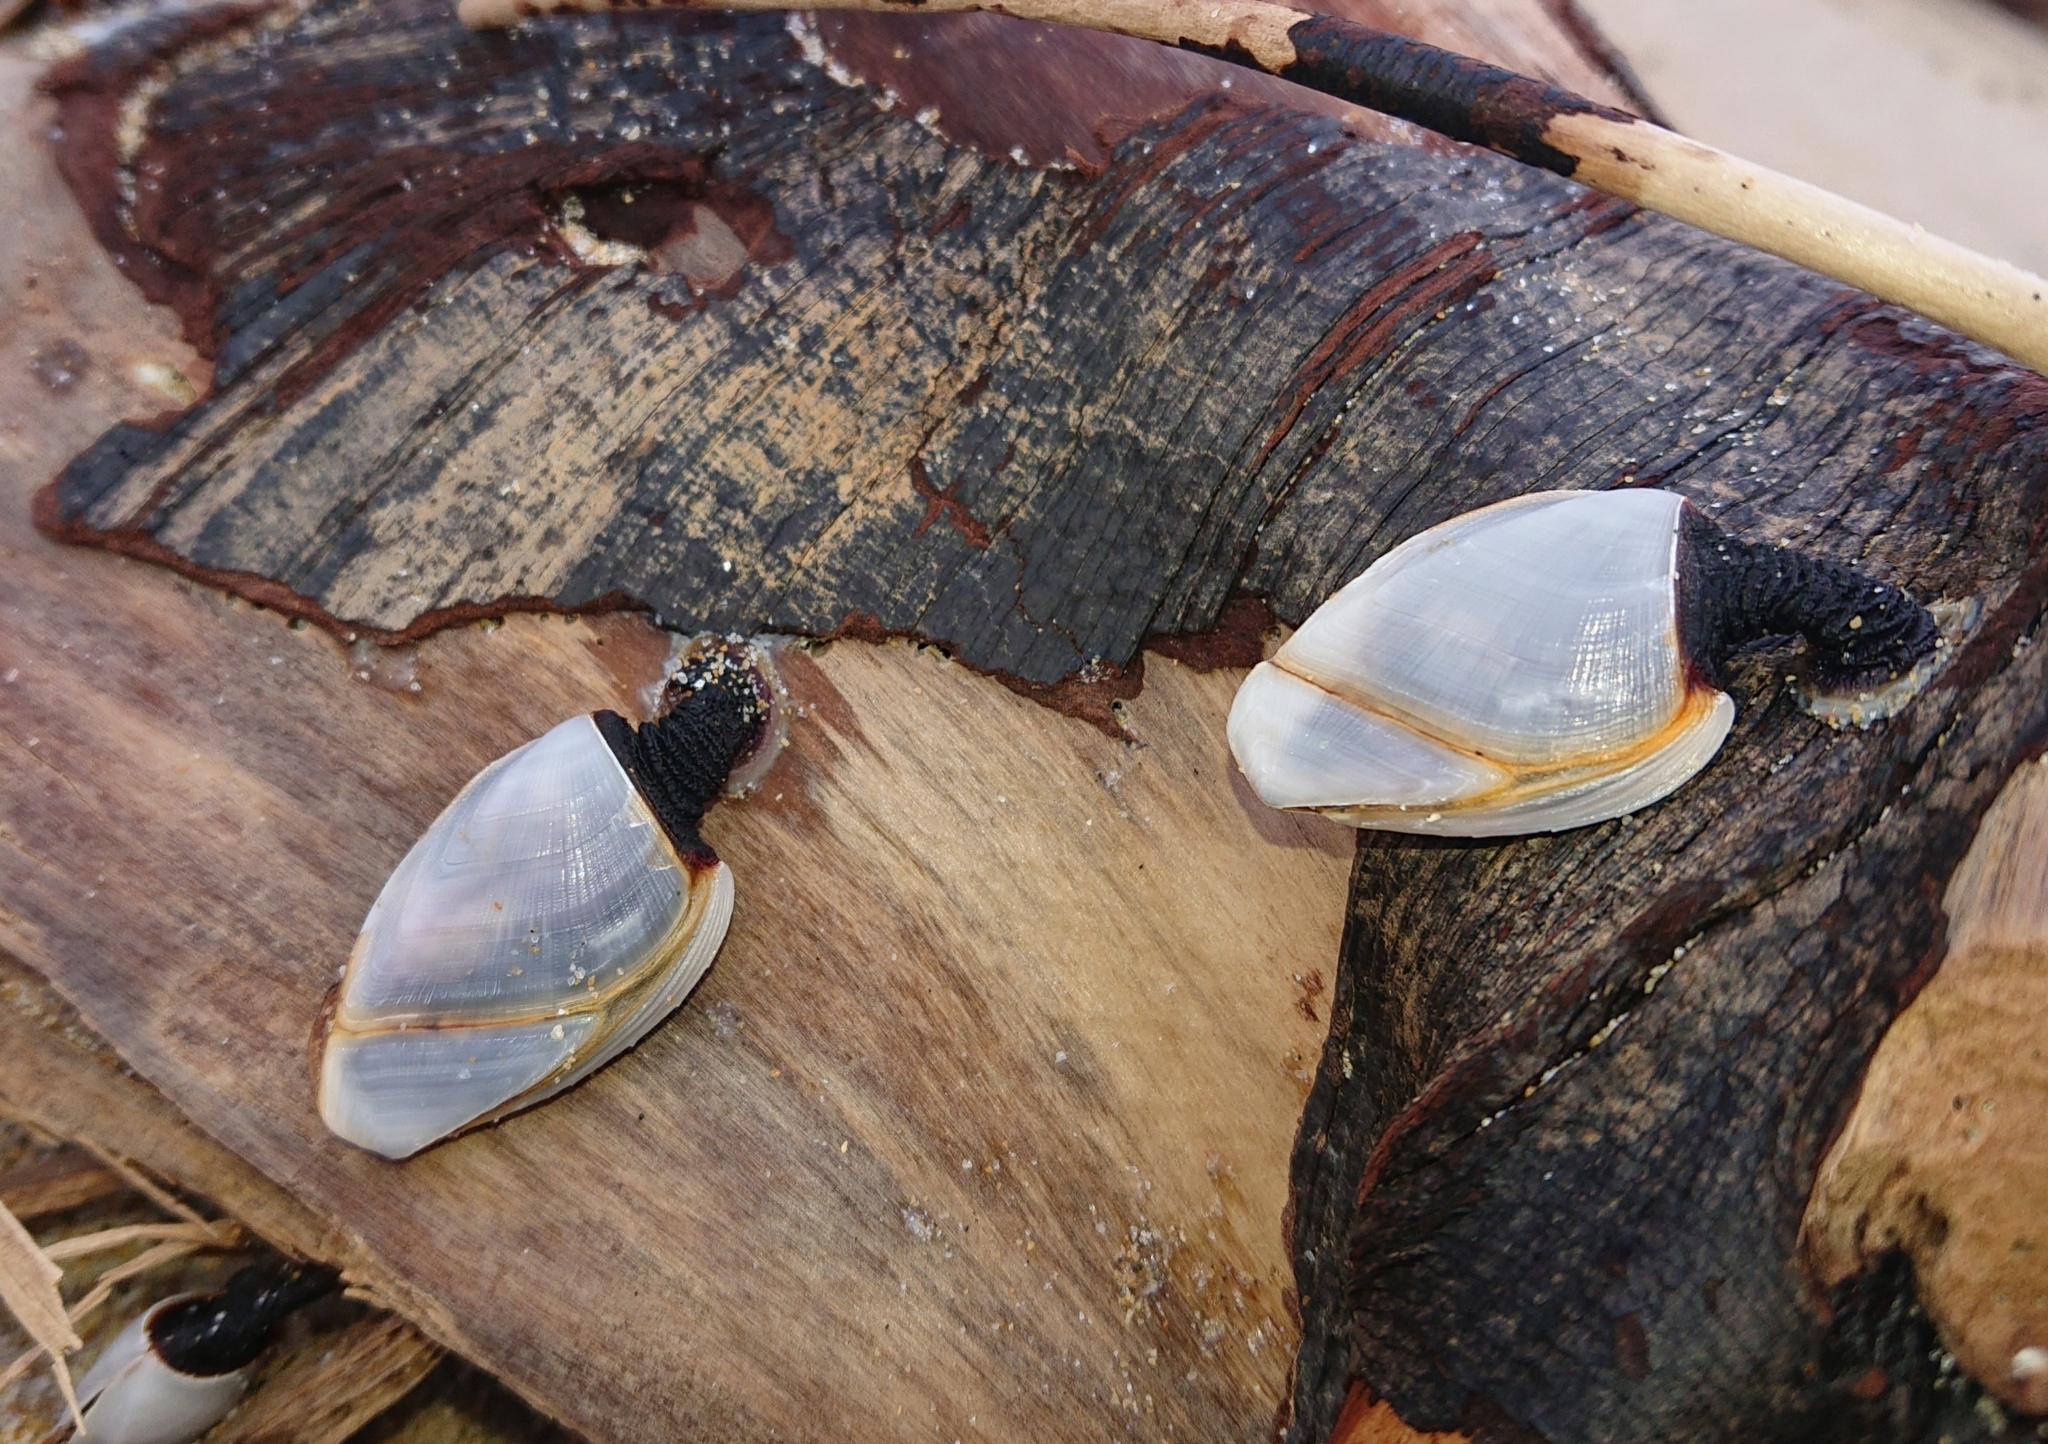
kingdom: Animalia
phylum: Arthropoda
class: Maxillopoda
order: Pedunculata
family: Lepadidae
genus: Lepas
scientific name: Lepas anatifera
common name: Common goose barnacle
